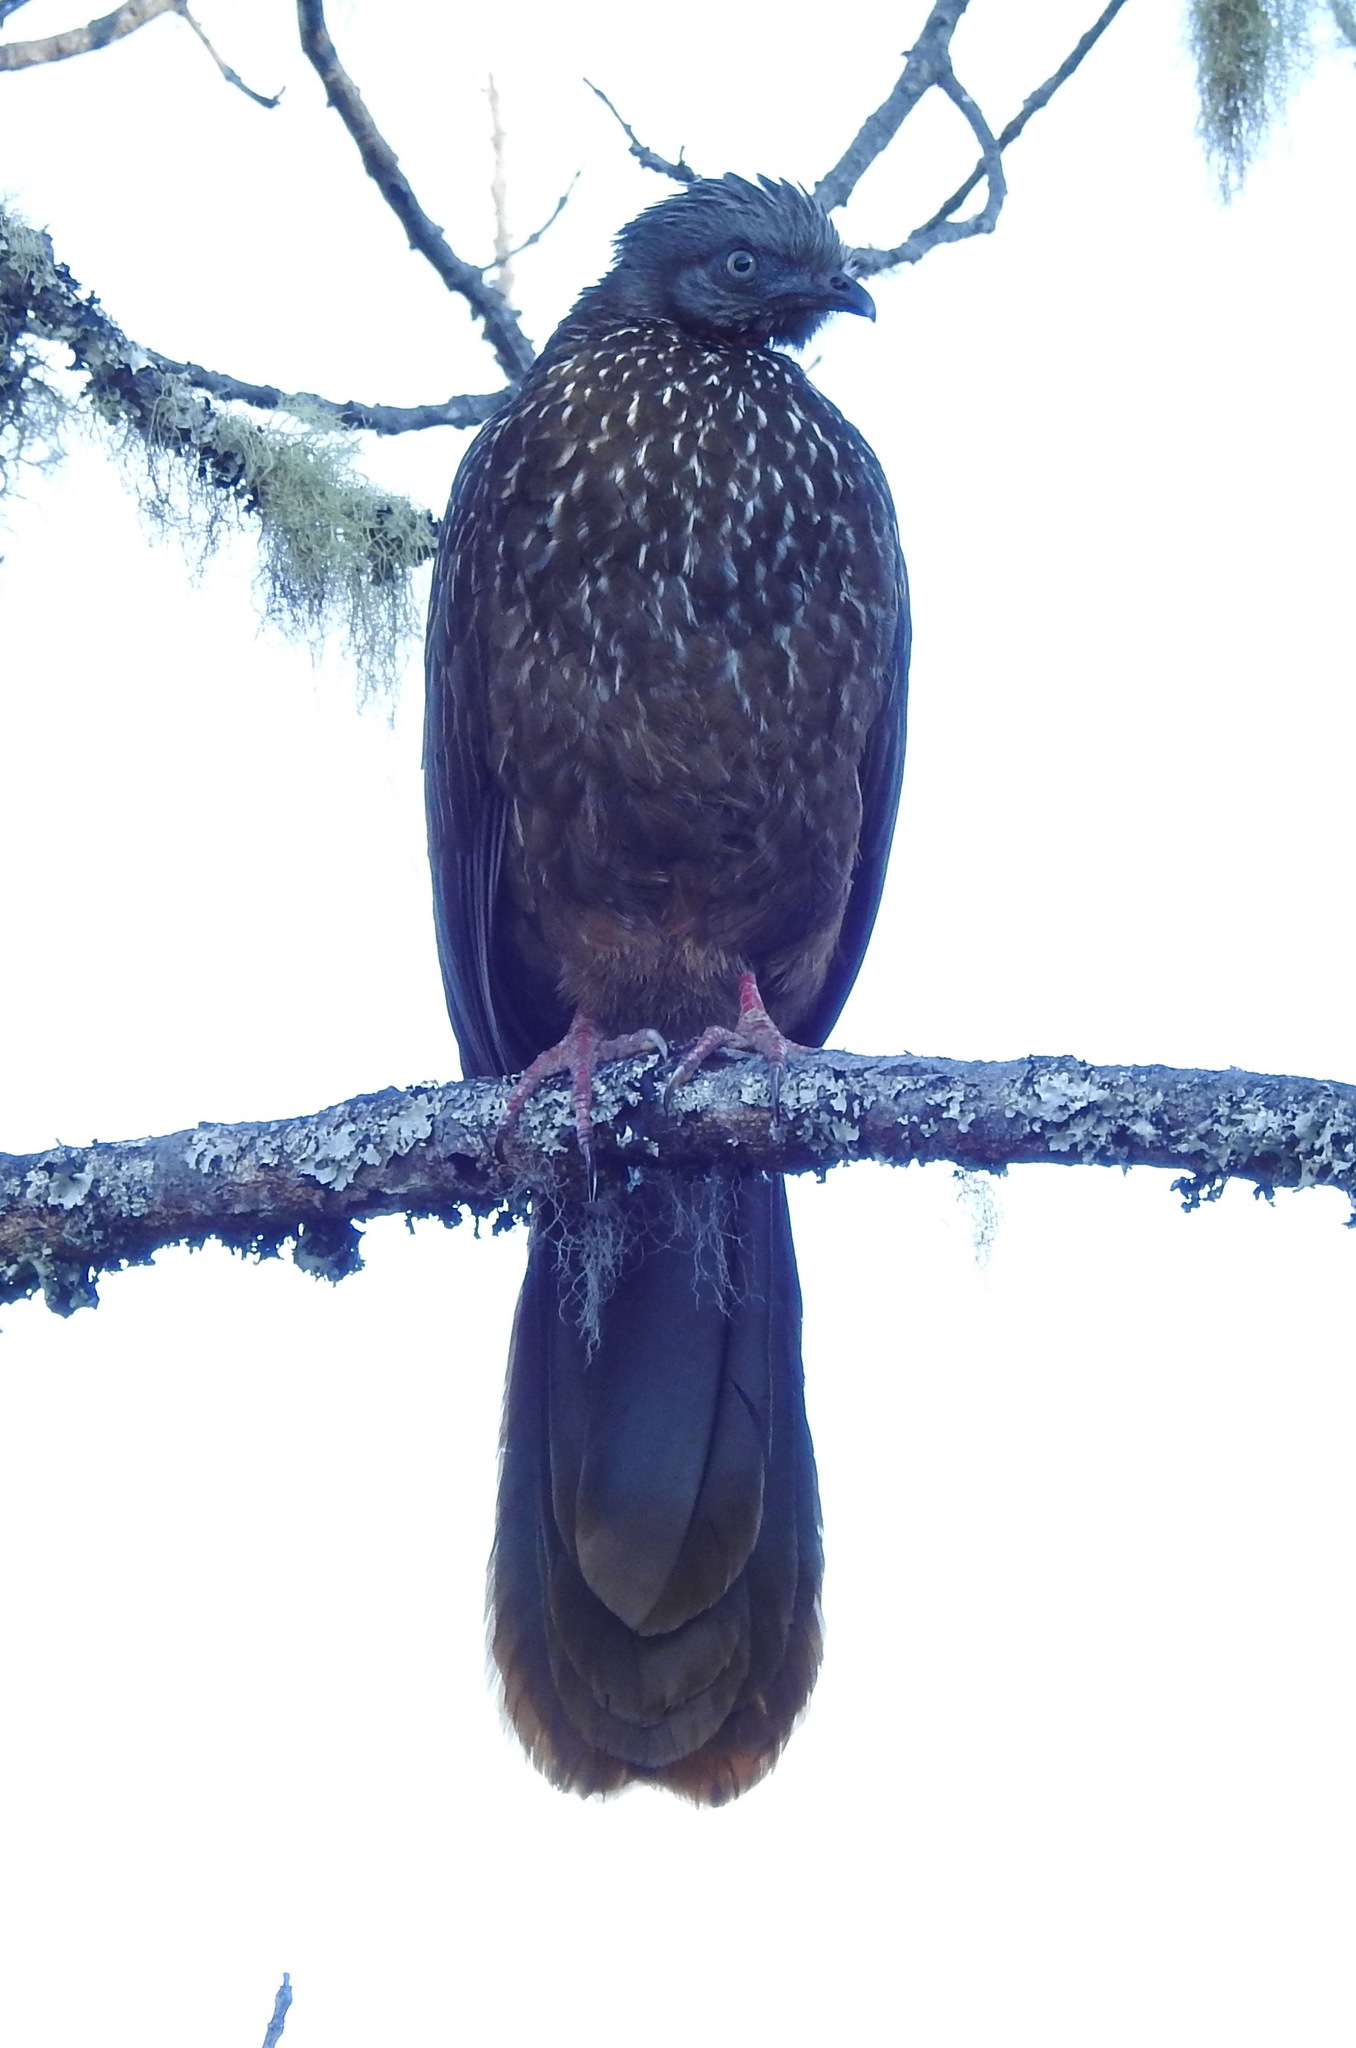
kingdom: Animalia
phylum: Chordata
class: Aves
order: Galliformes
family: Cracidae
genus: Penelope
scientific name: Penelope argyrotis
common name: Band-tailed guan
